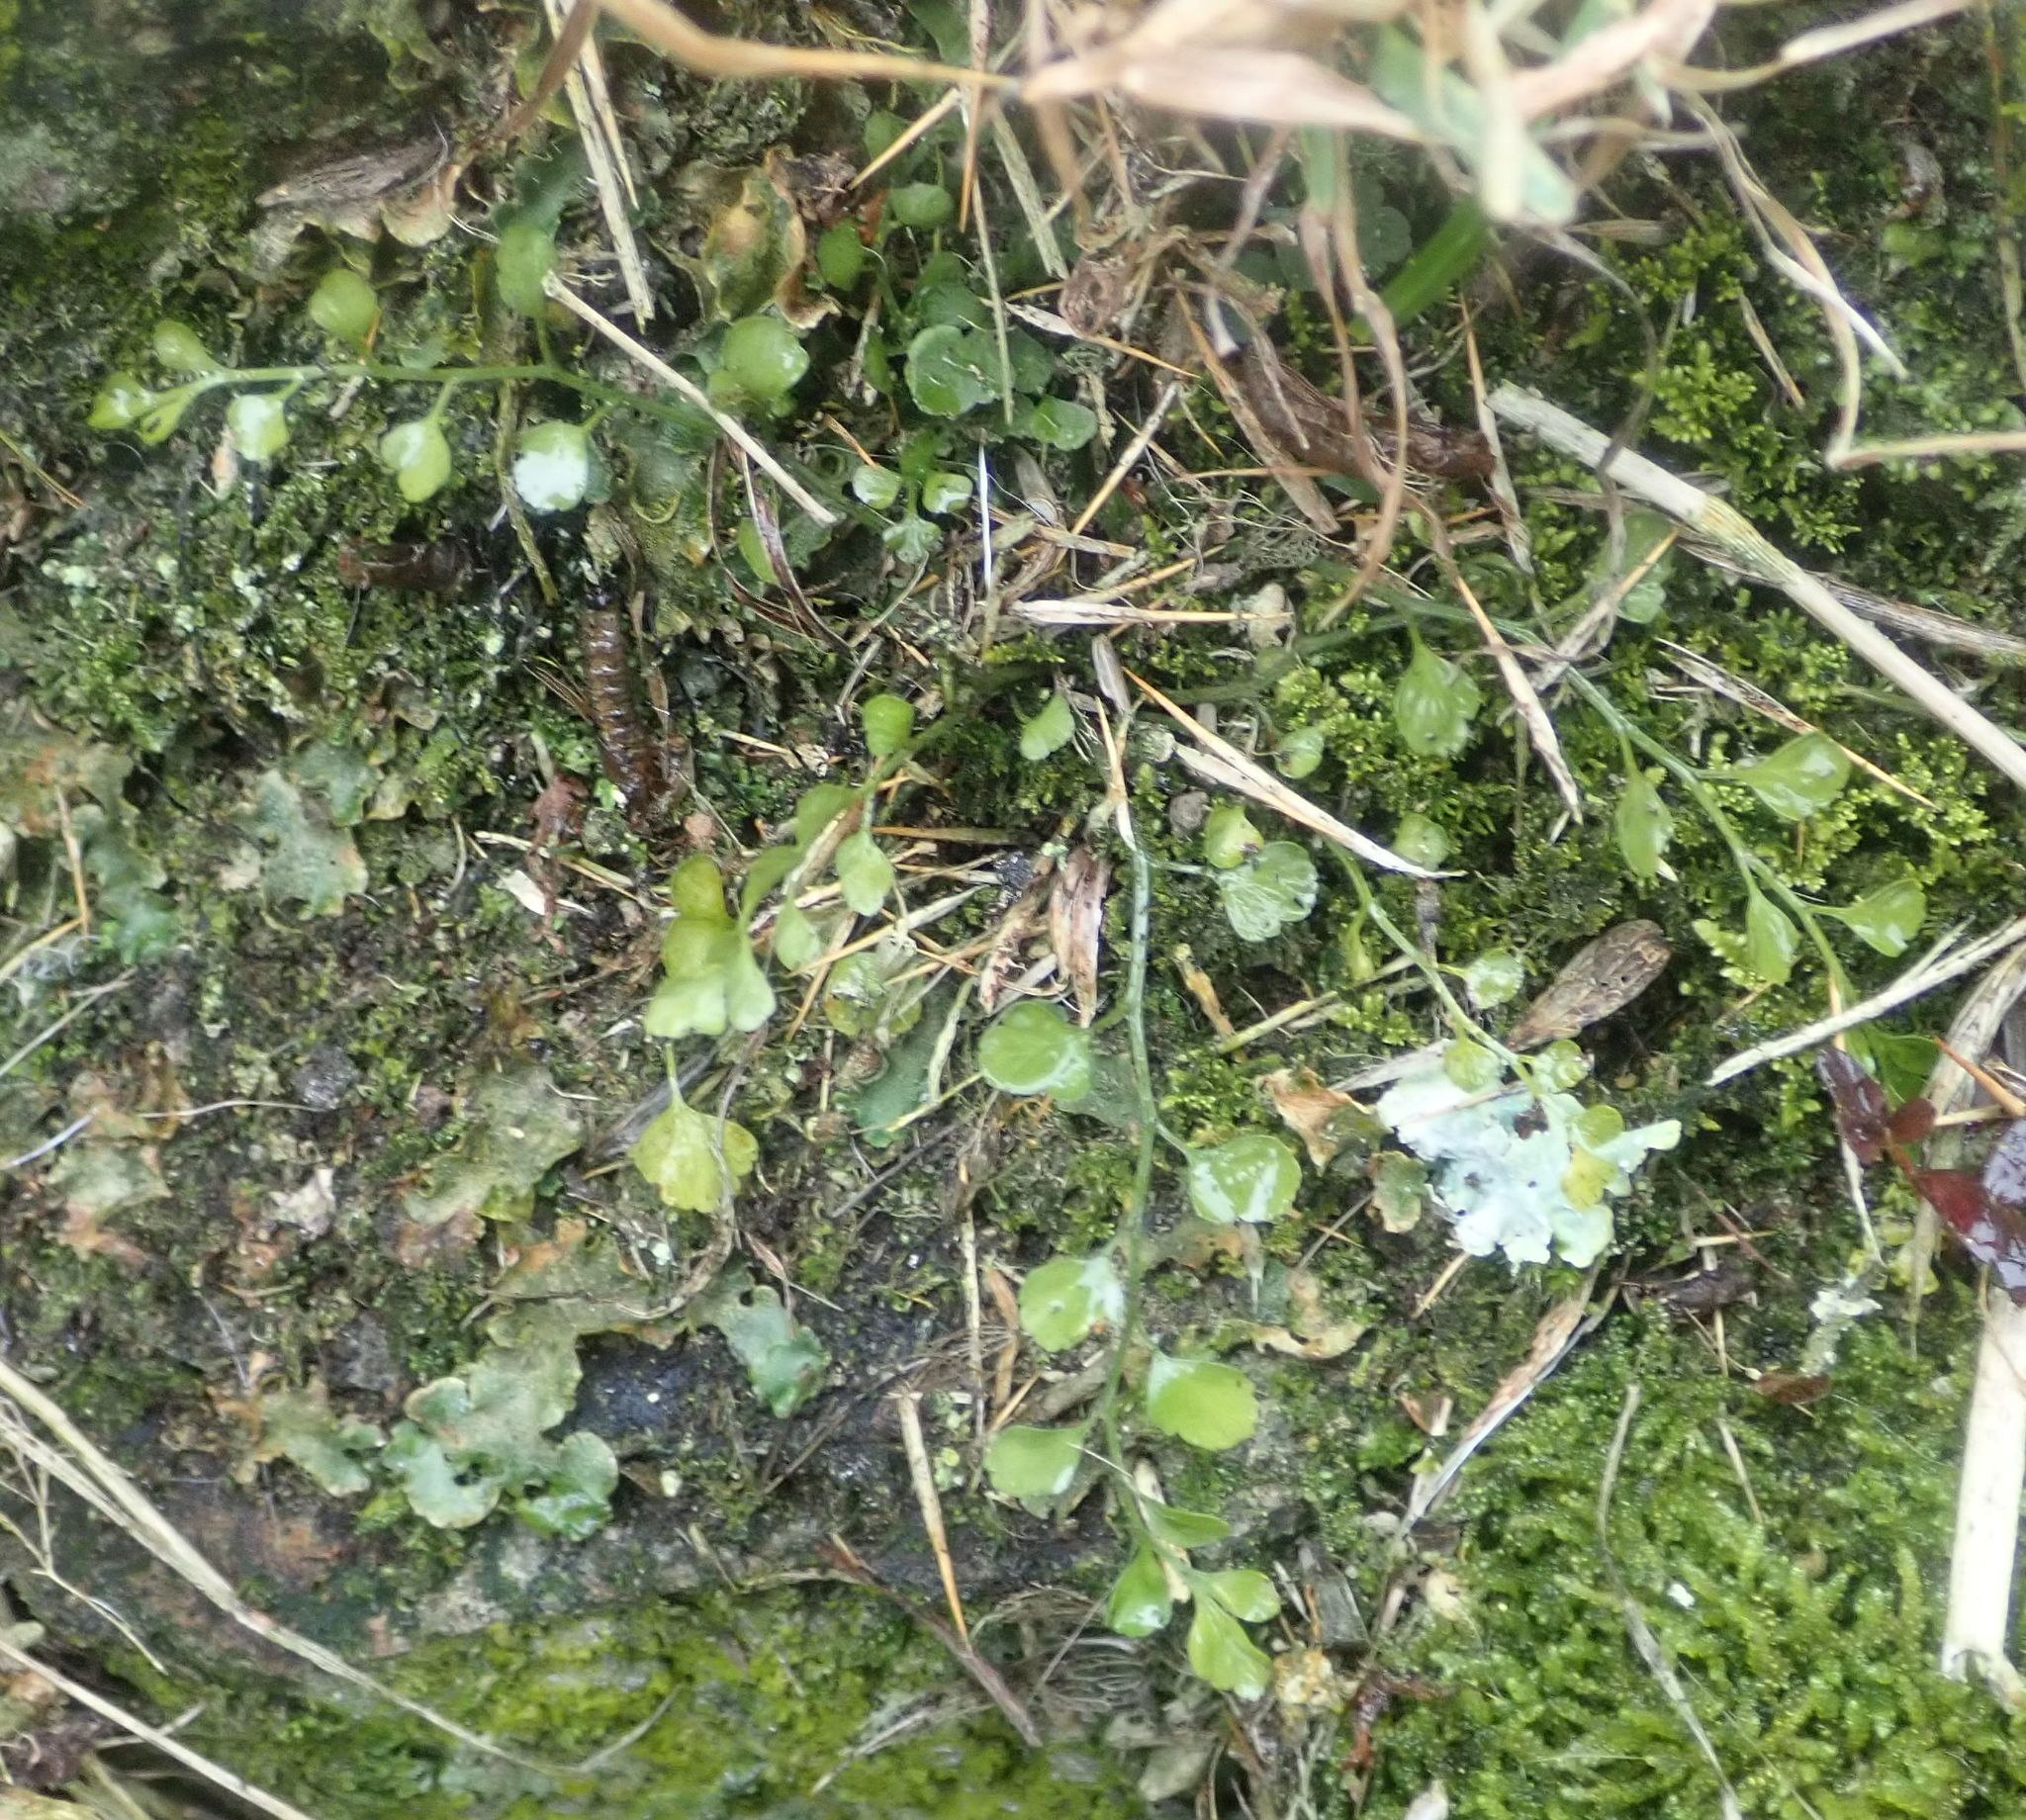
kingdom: Plantae
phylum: Tracheophyta
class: Polypodiopsida
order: Polypodiales
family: Aspleniaceae
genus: Asplenium
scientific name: Asplenium hookerianum
